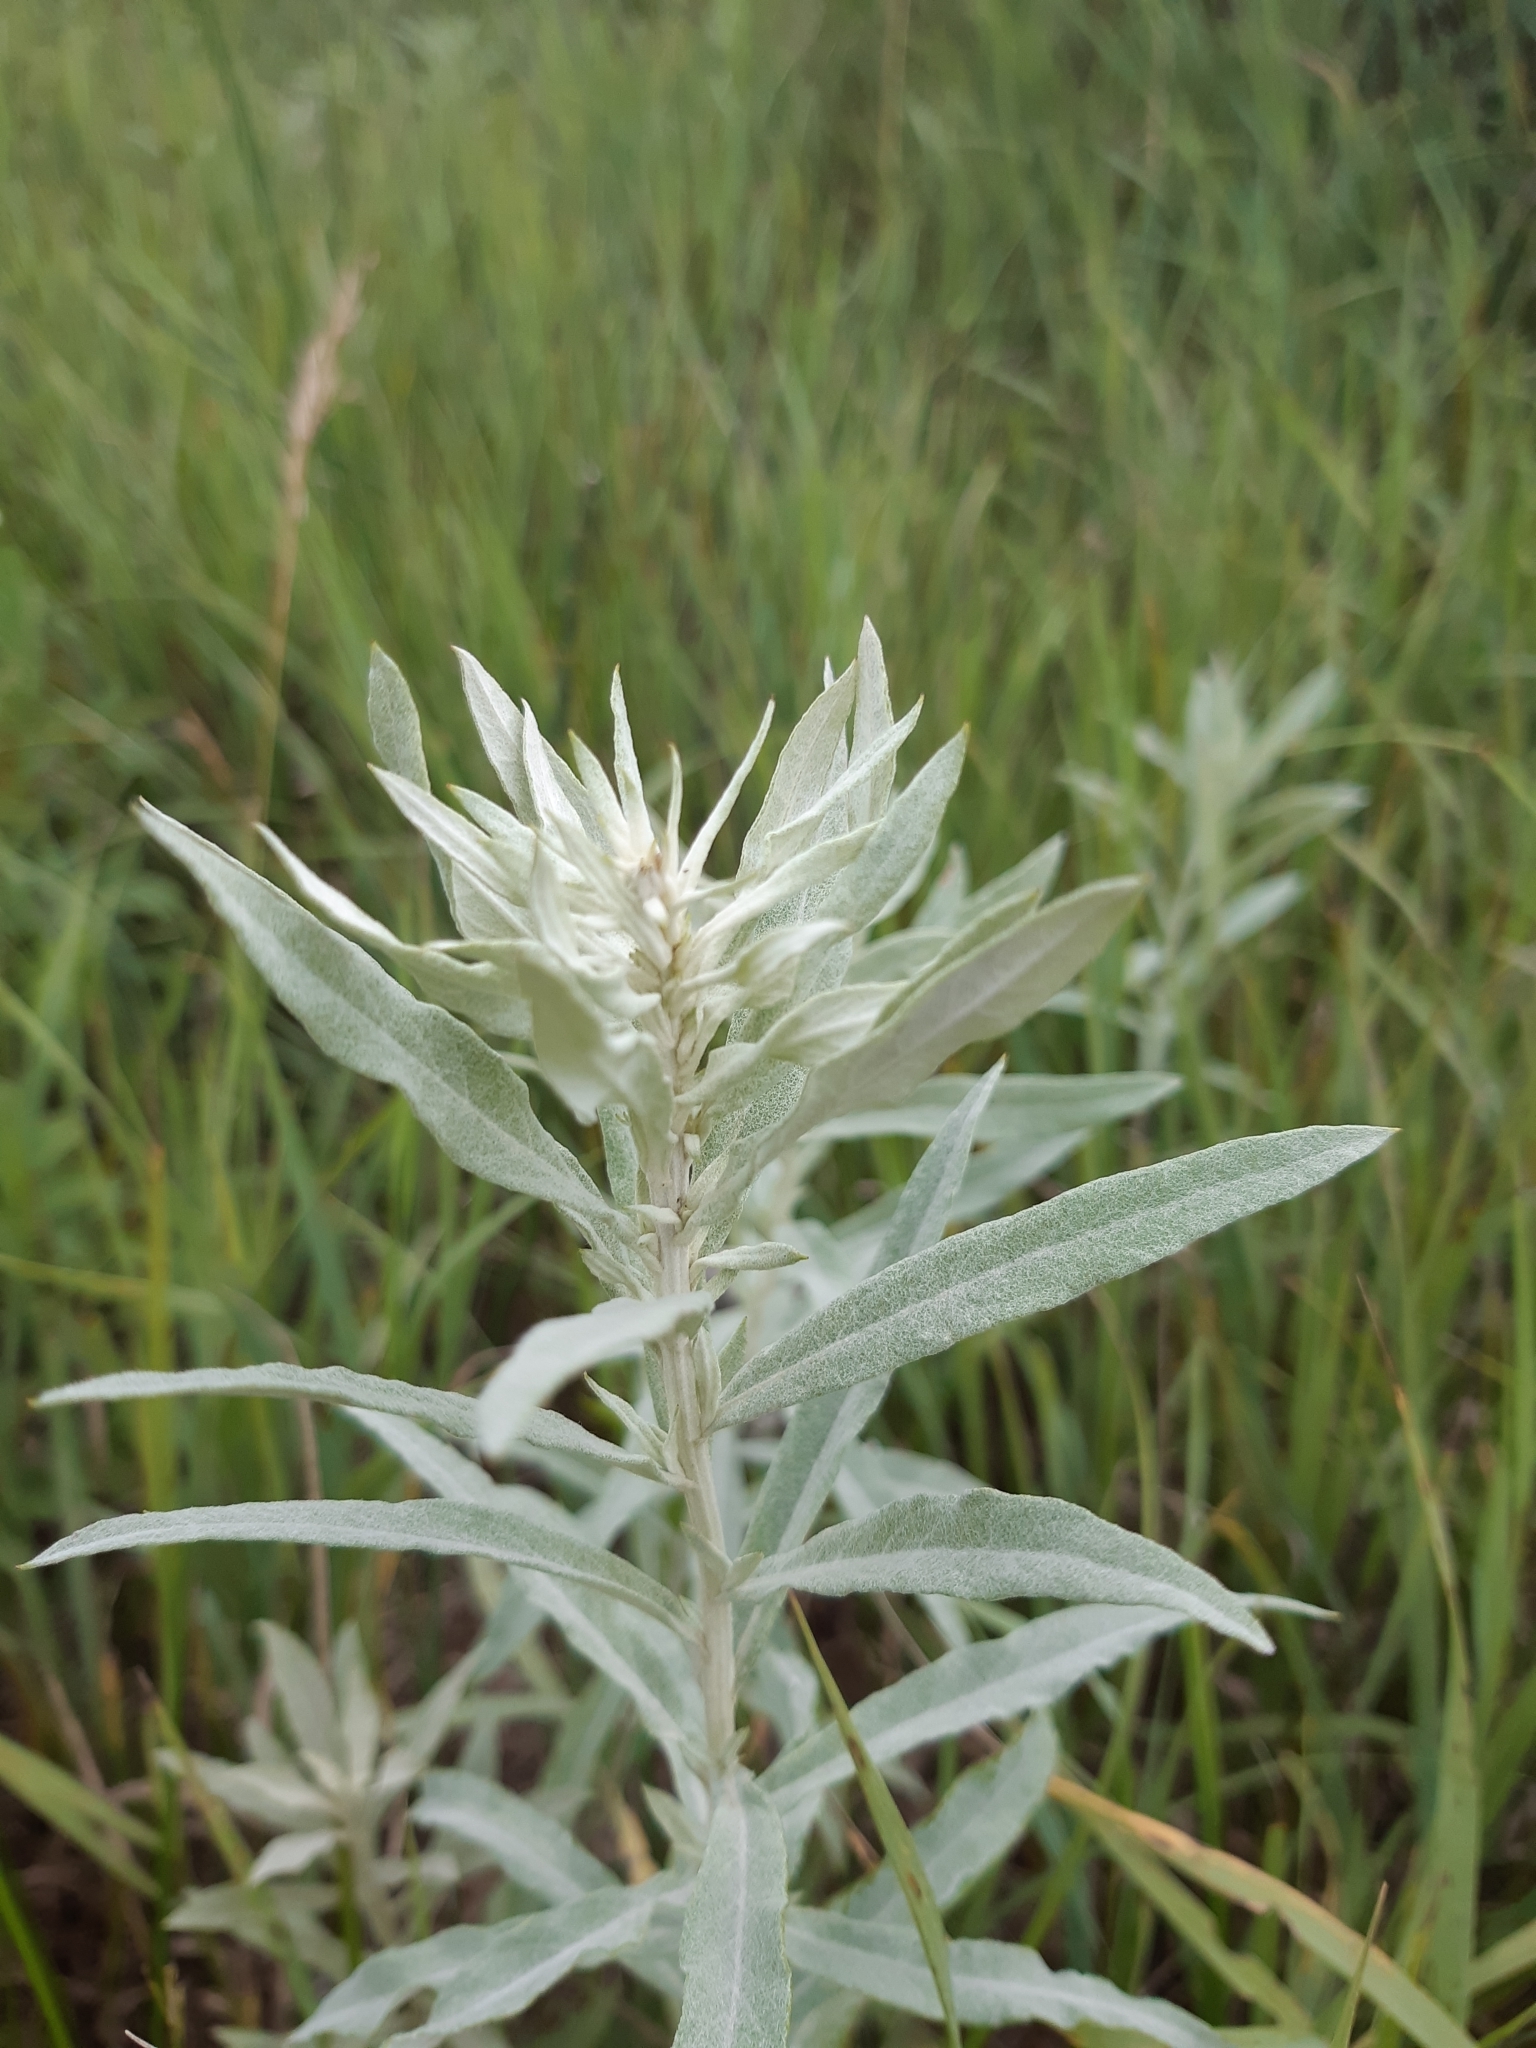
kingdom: Plantae
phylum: Tracheophyta
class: Magnoliopsida
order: Asterales
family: Asteraceae
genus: Artemisia
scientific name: Artemisia ludoviciana
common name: Western mugwort
